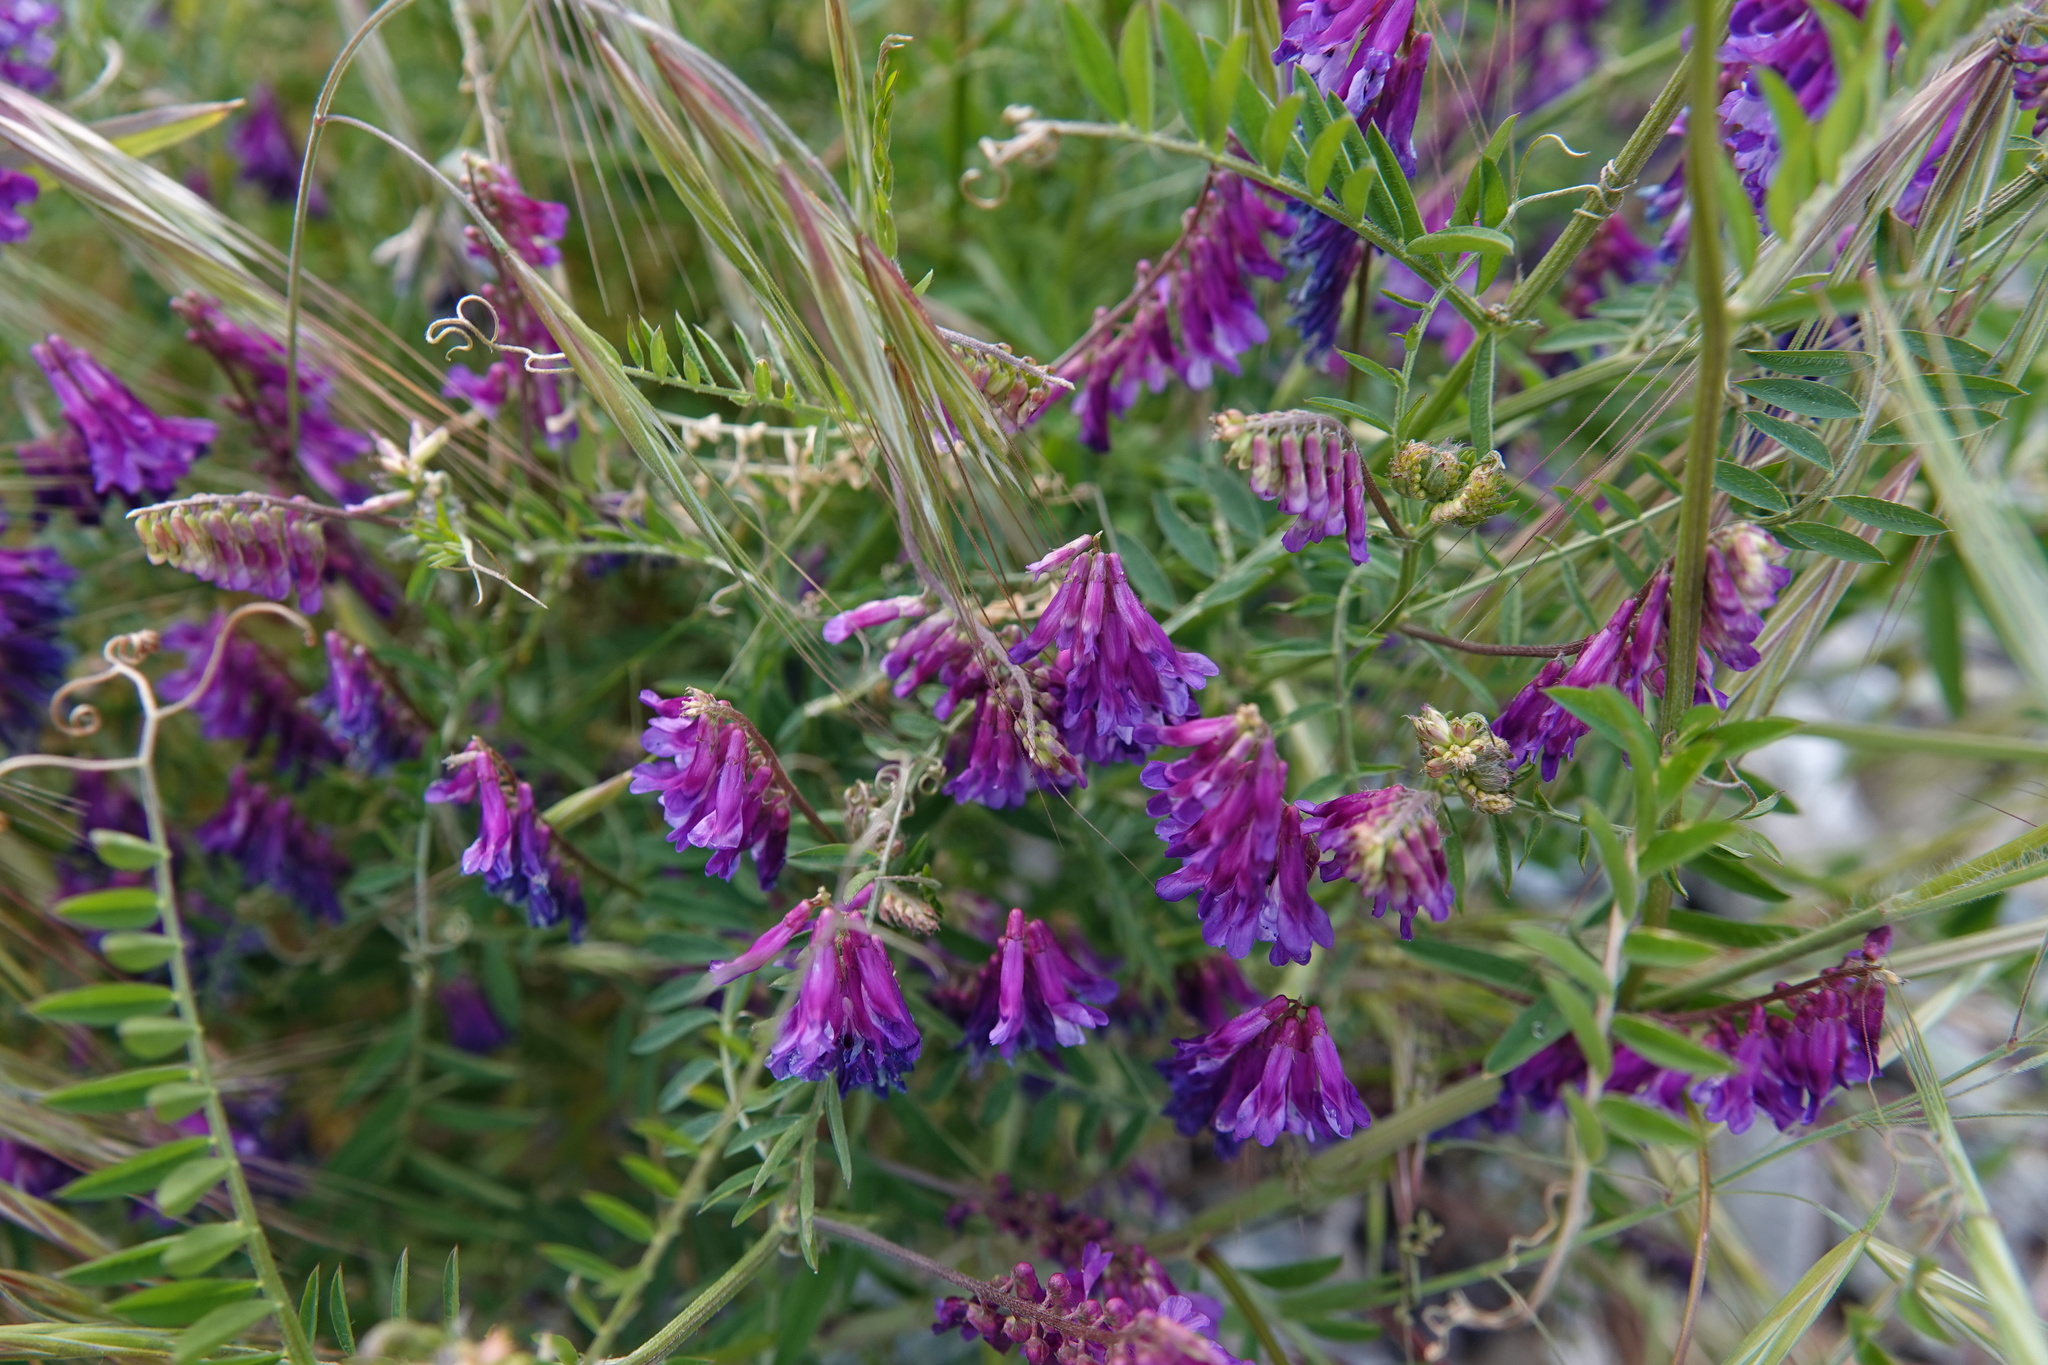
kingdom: Plantae
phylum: Tracheophyta
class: Magnoliopsida
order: Fabales
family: Fabaceae
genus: Vicia
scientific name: Vicia villosa
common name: Fodder vetch
